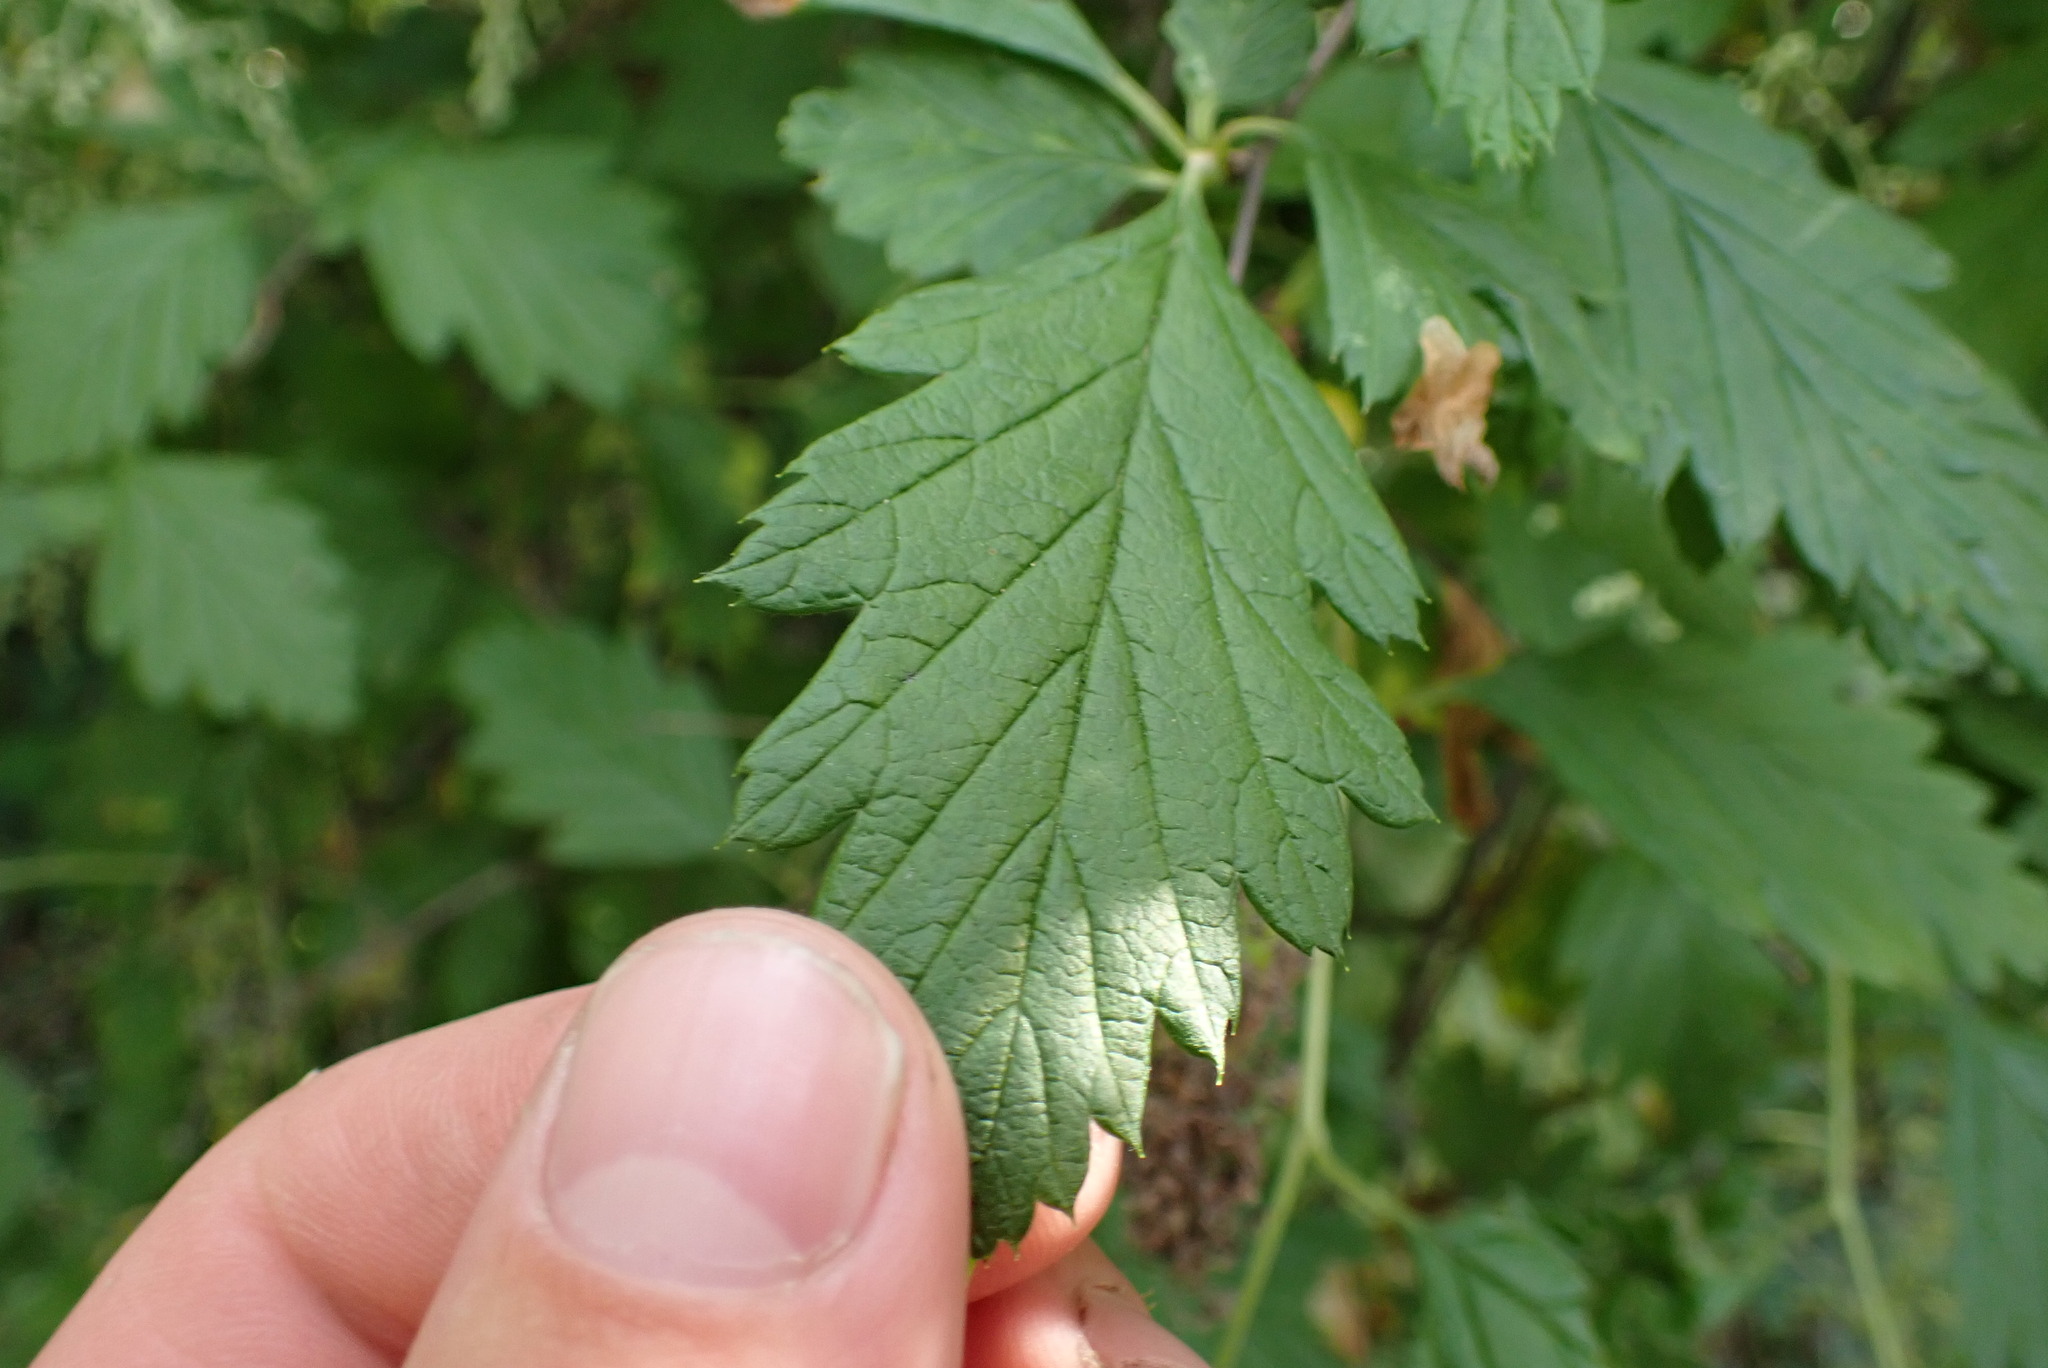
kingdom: Plantae
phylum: Tracheophyta
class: Magnoliopsida
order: Rosales
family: Rosaceae
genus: Holodiscus
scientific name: Holodiscus discolor
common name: Oceanspray
